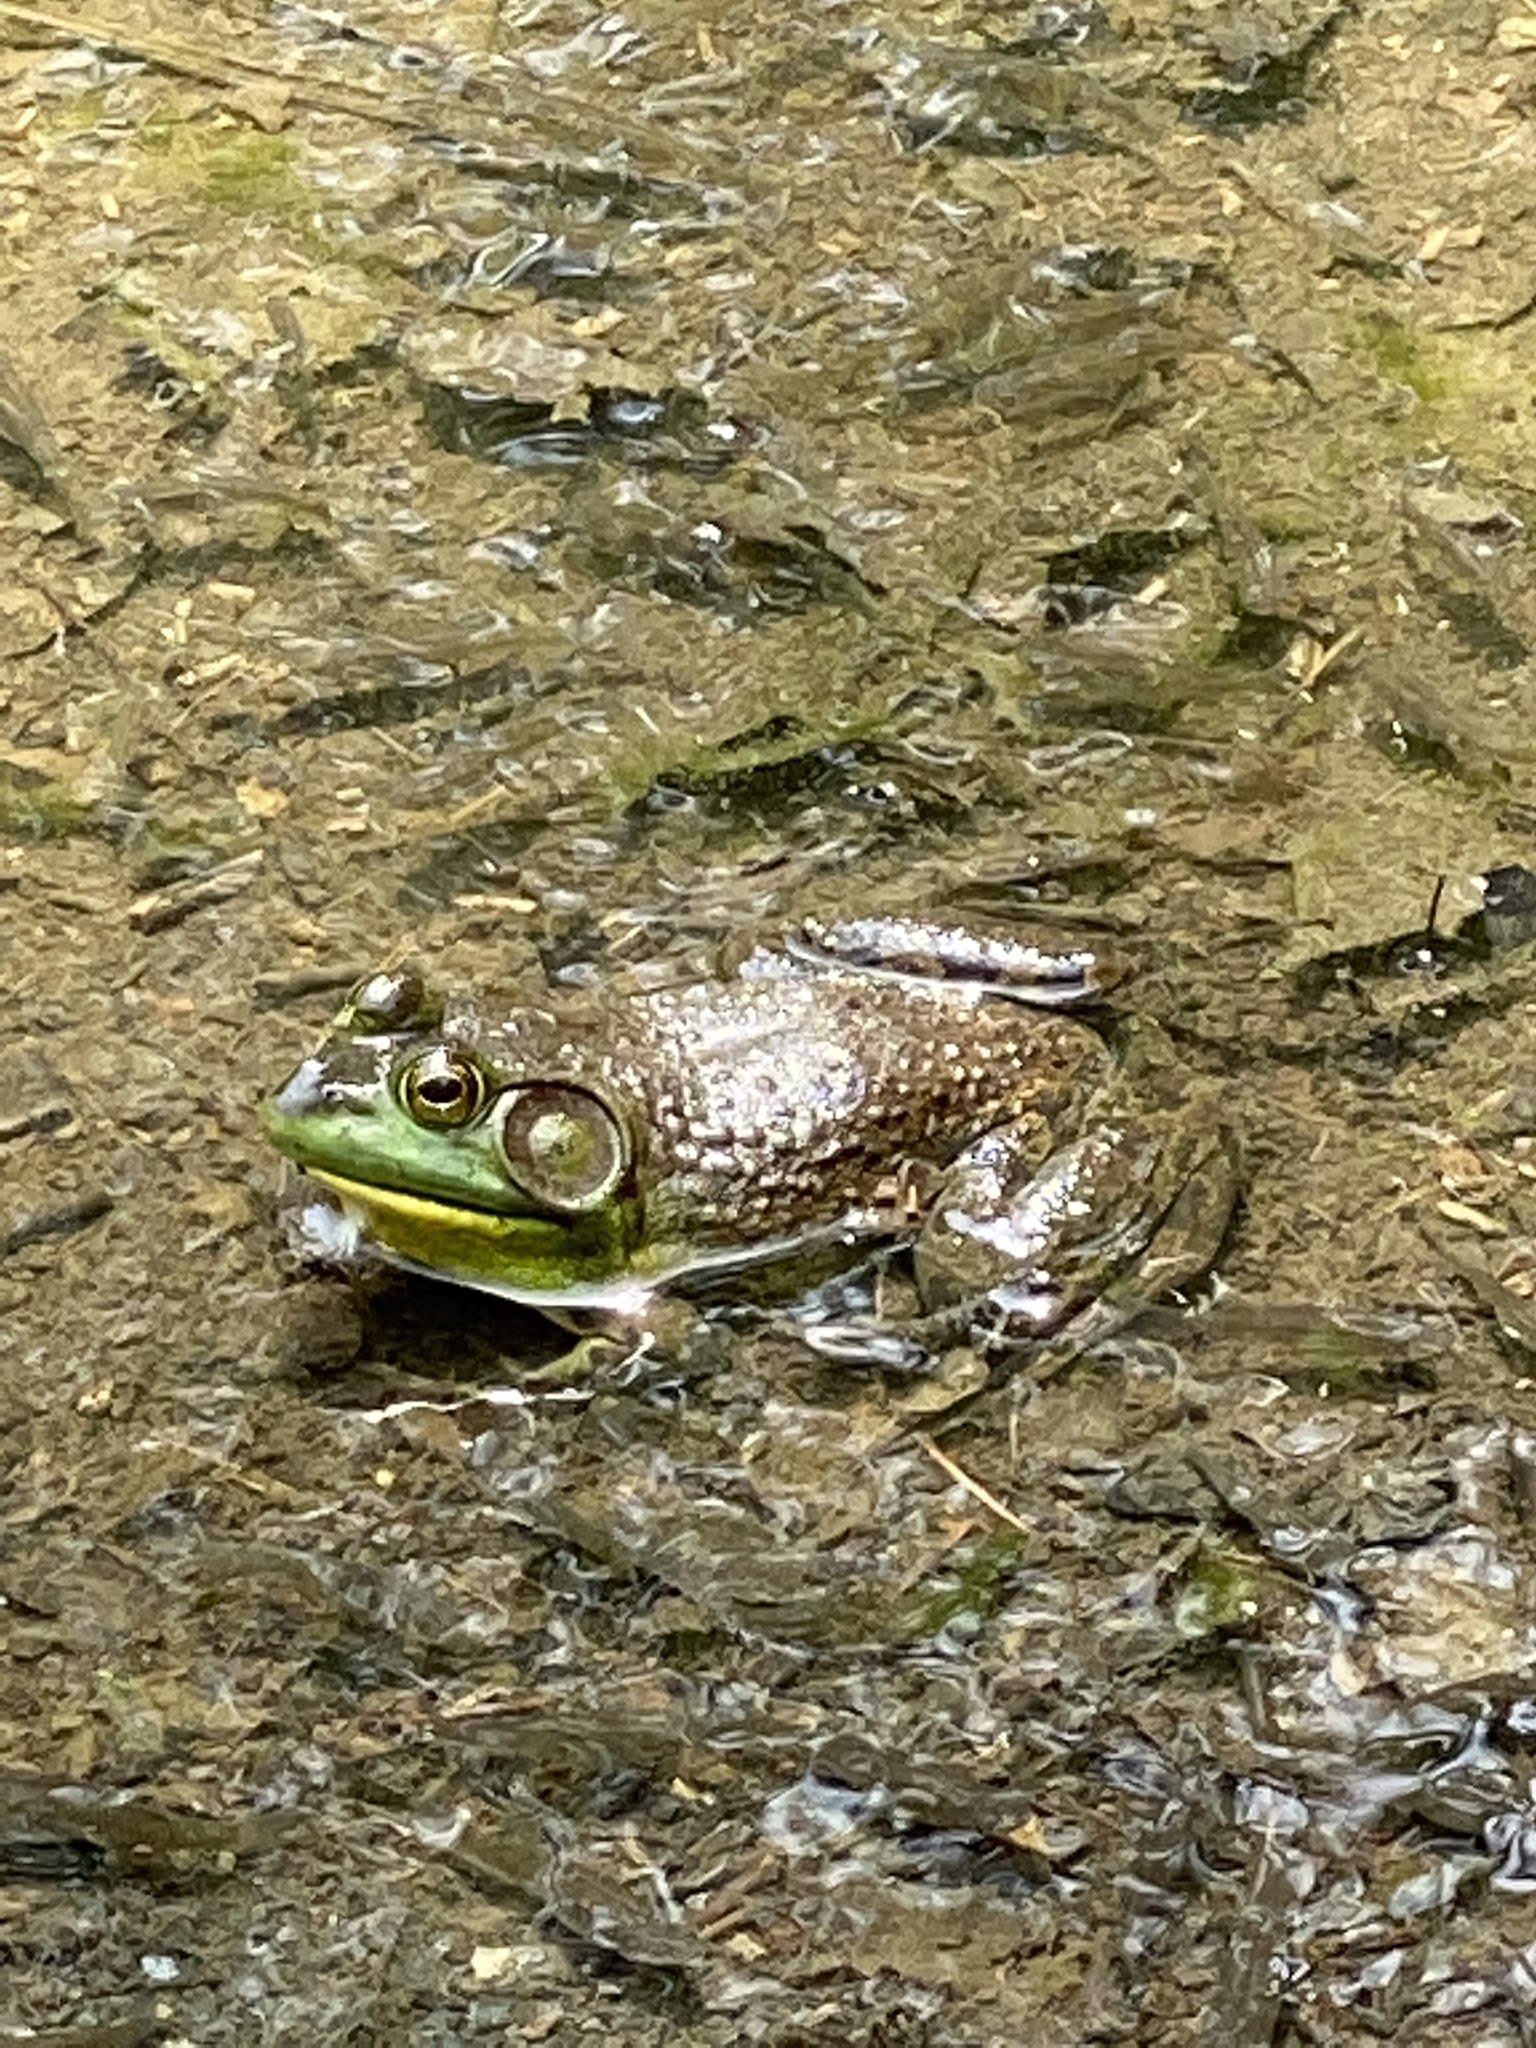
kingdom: Animalia
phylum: Chordata
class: Amphibia
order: Anura
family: Ranidae
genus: Lithobates
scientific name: Lithobates catesbeianus
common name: American bullfrog
